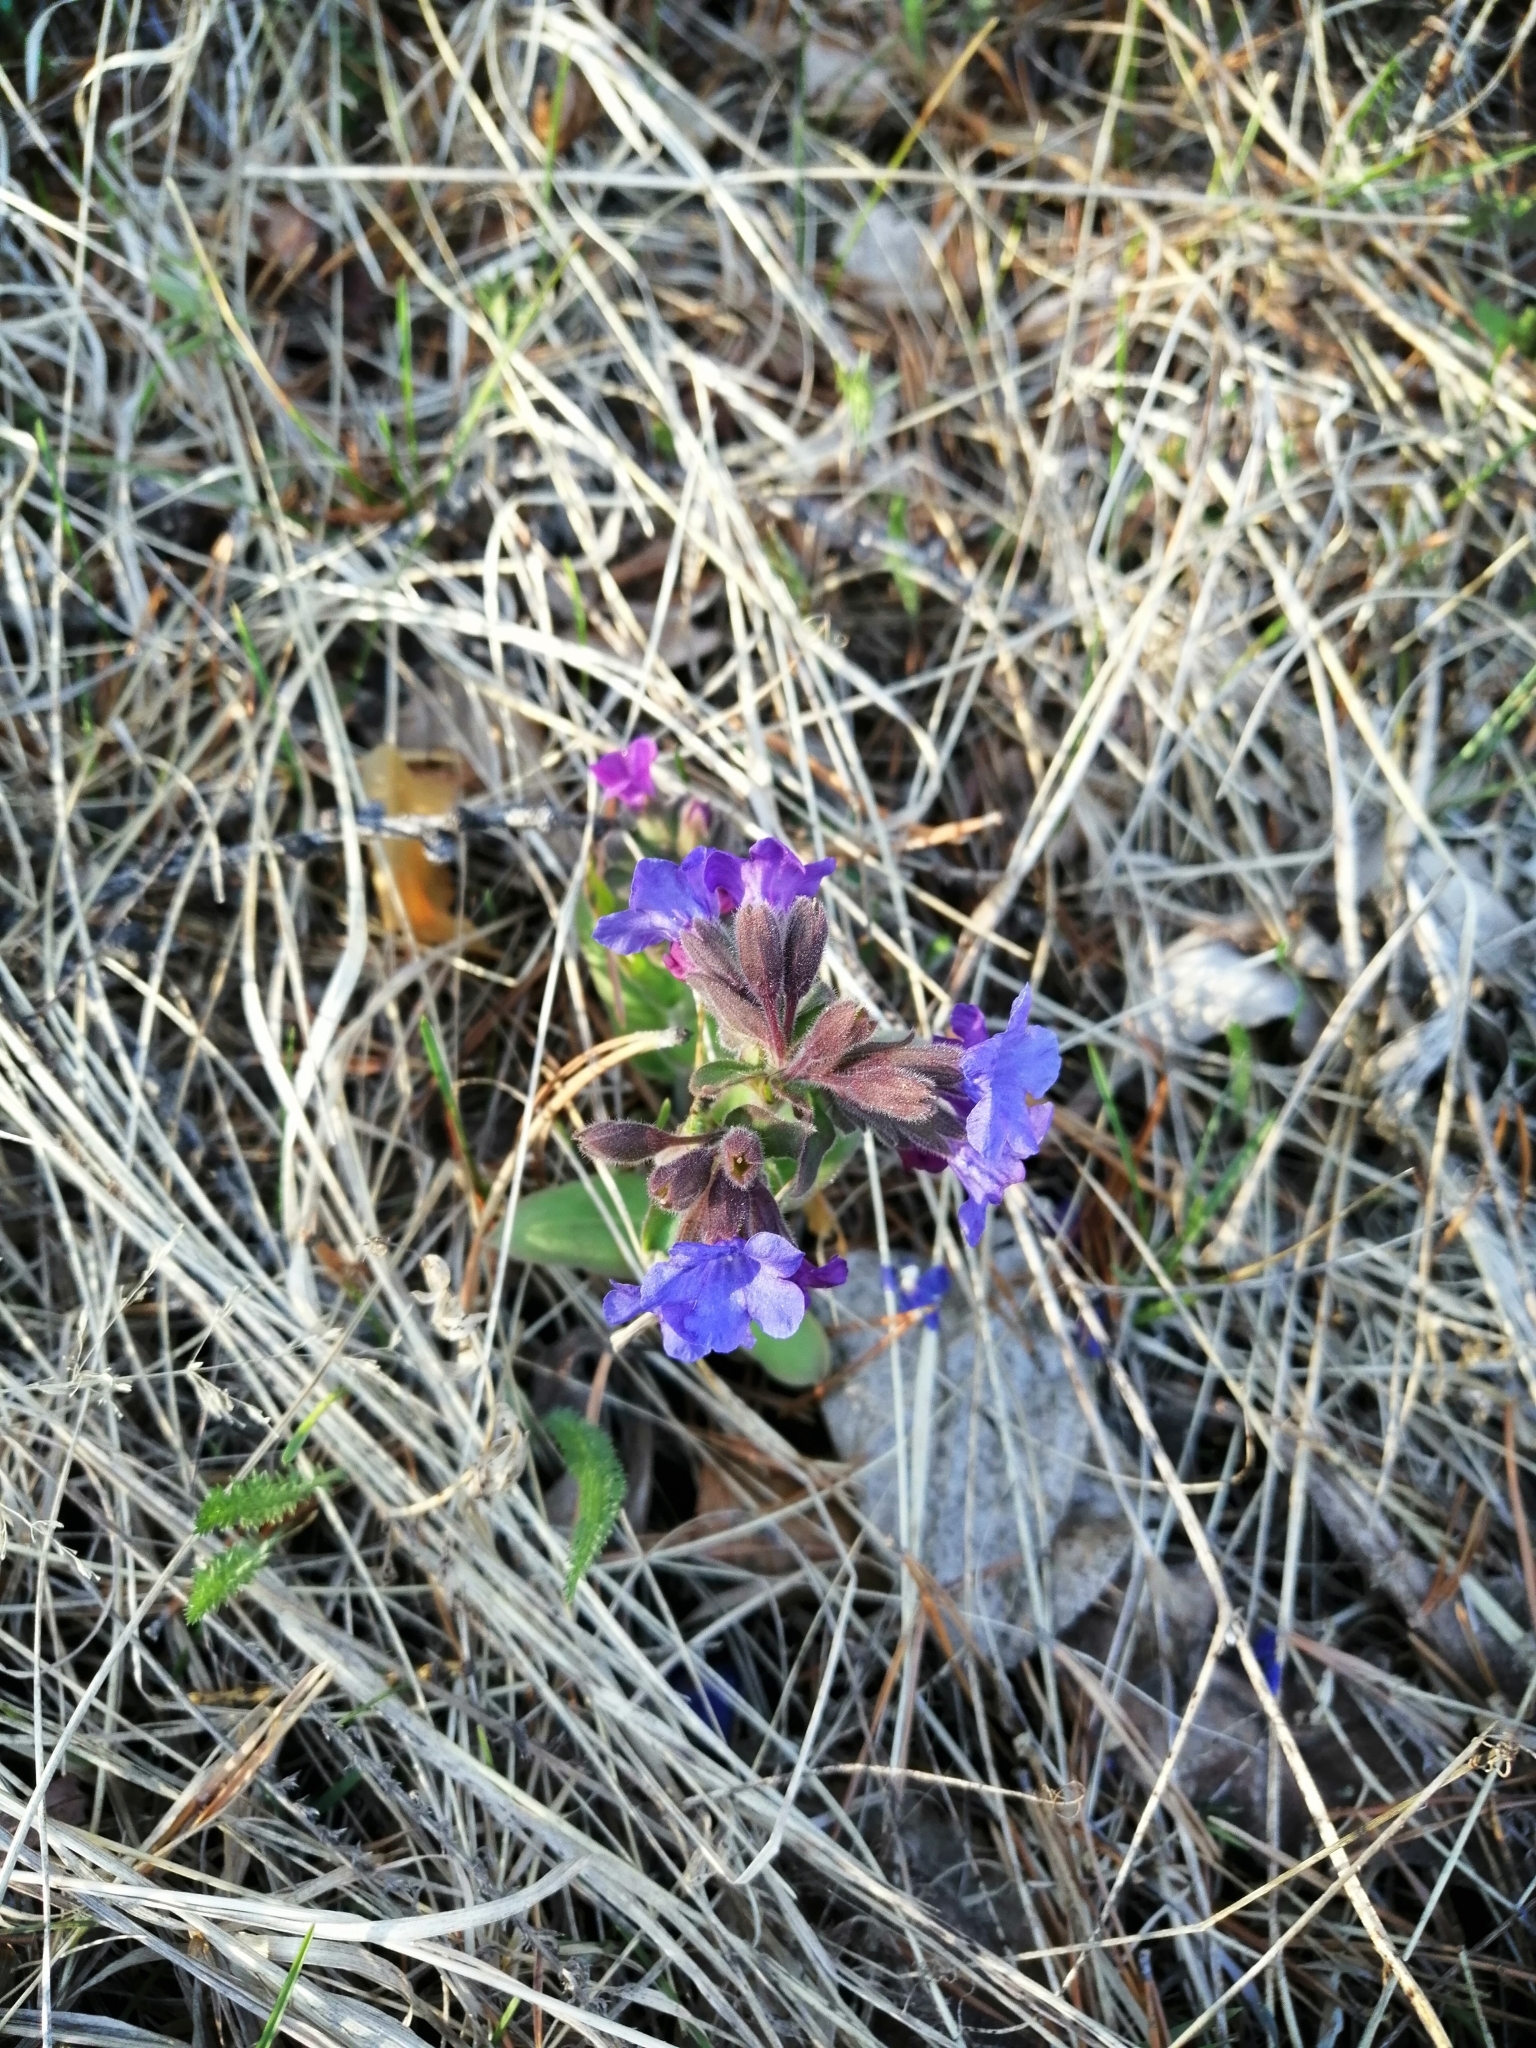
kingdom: Plantae
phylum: Tracheophyta
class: Magnoliopsida
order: Boraginales
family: Boraginaceae
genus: Pulmonaria
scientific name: Pulmonaria mollis
